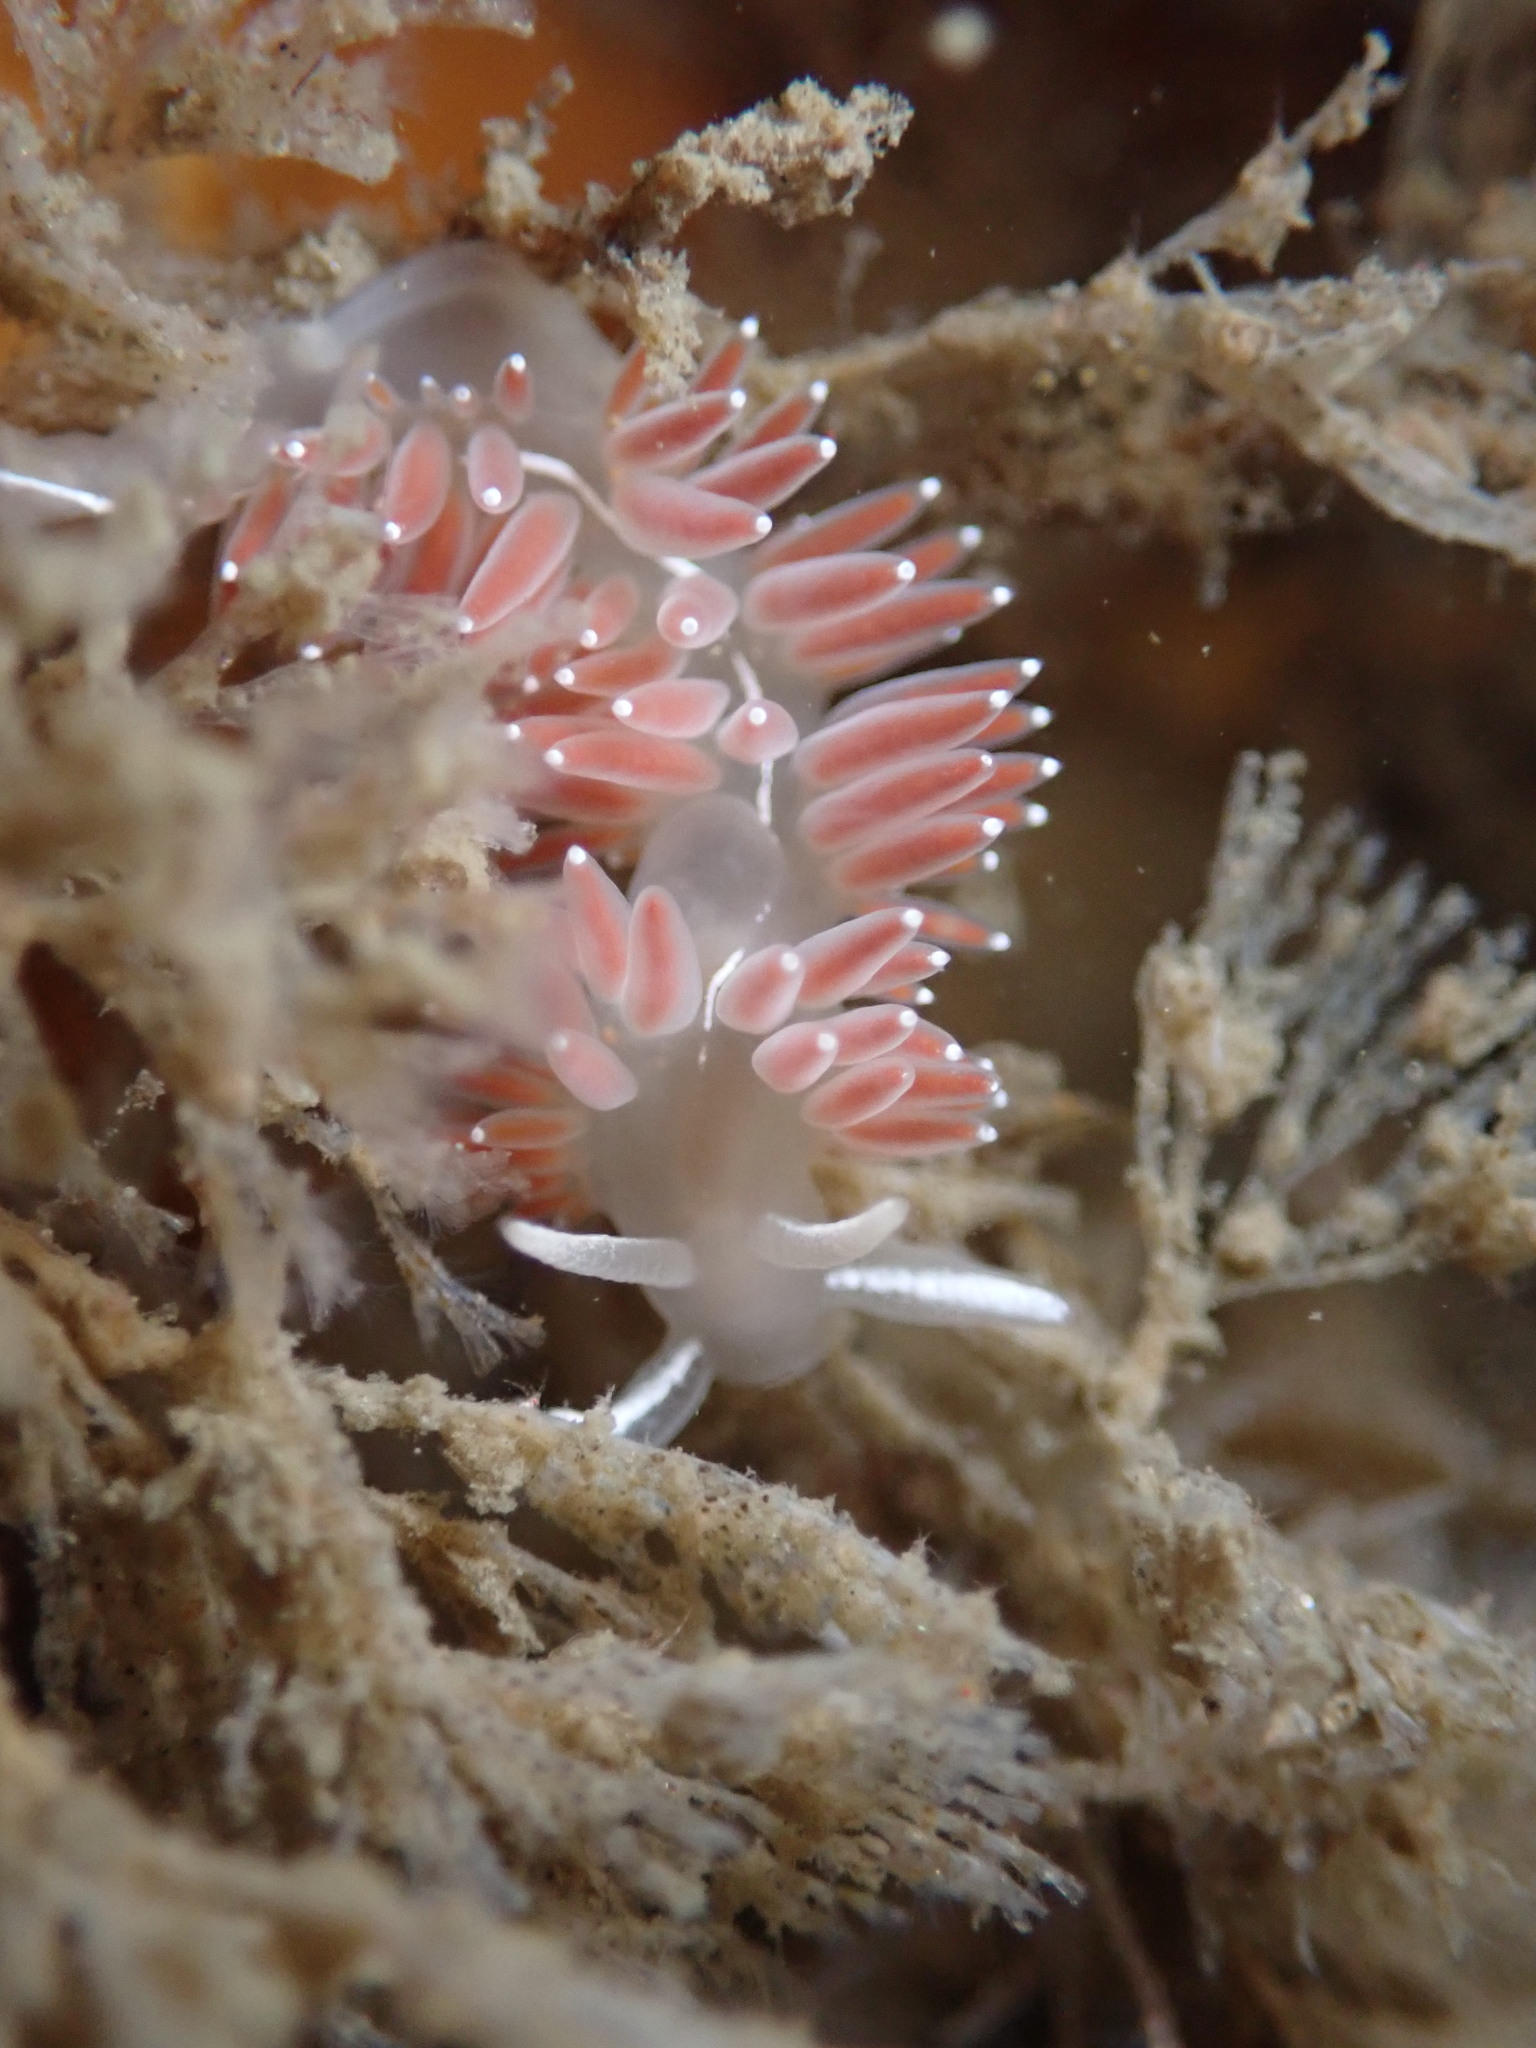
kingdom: Animalia
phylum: Mollusca
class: Gastropoda
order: Nudibranchia
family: Coryphellidae
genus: Coryphella
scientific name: Coryphella verrucosa
